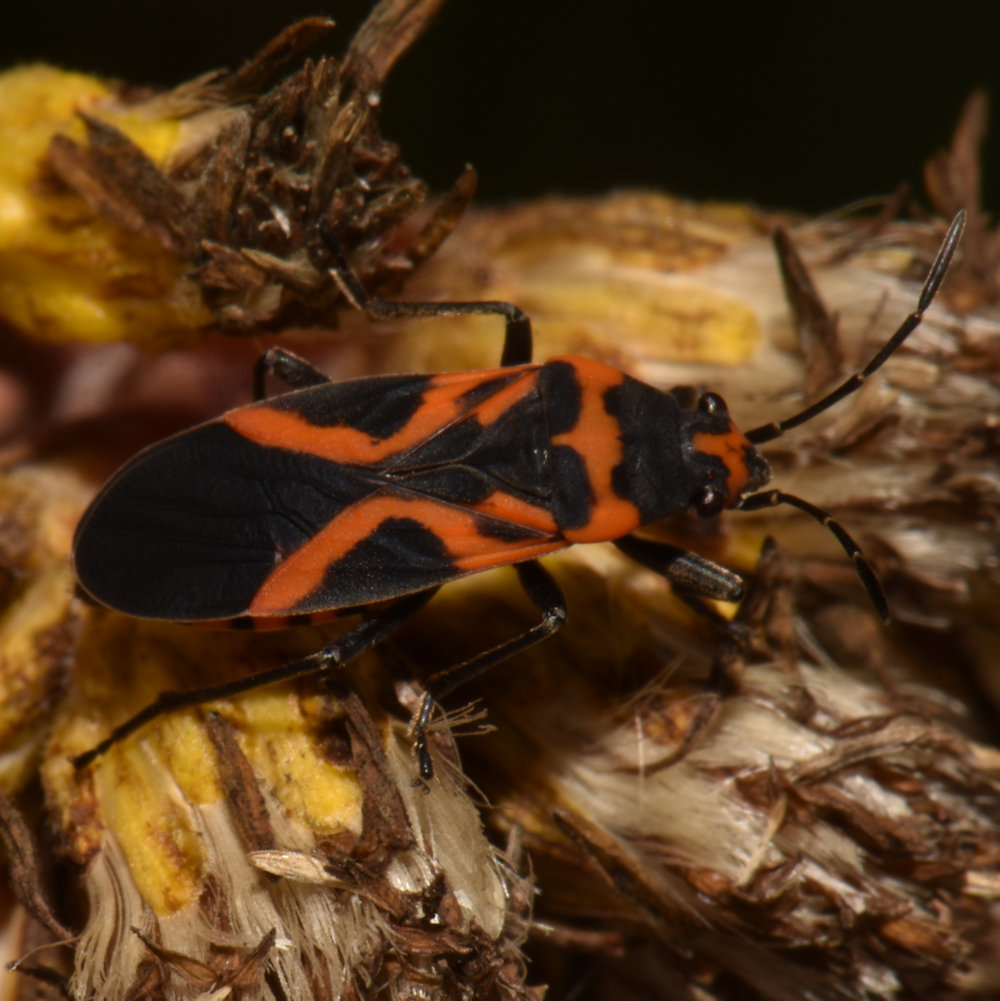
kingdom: Animalia
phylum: Arthropoda
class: Insecta
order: Hemiptera
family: Lygaeidae
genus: Lygaeus
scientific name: Lygaeus turcicus
